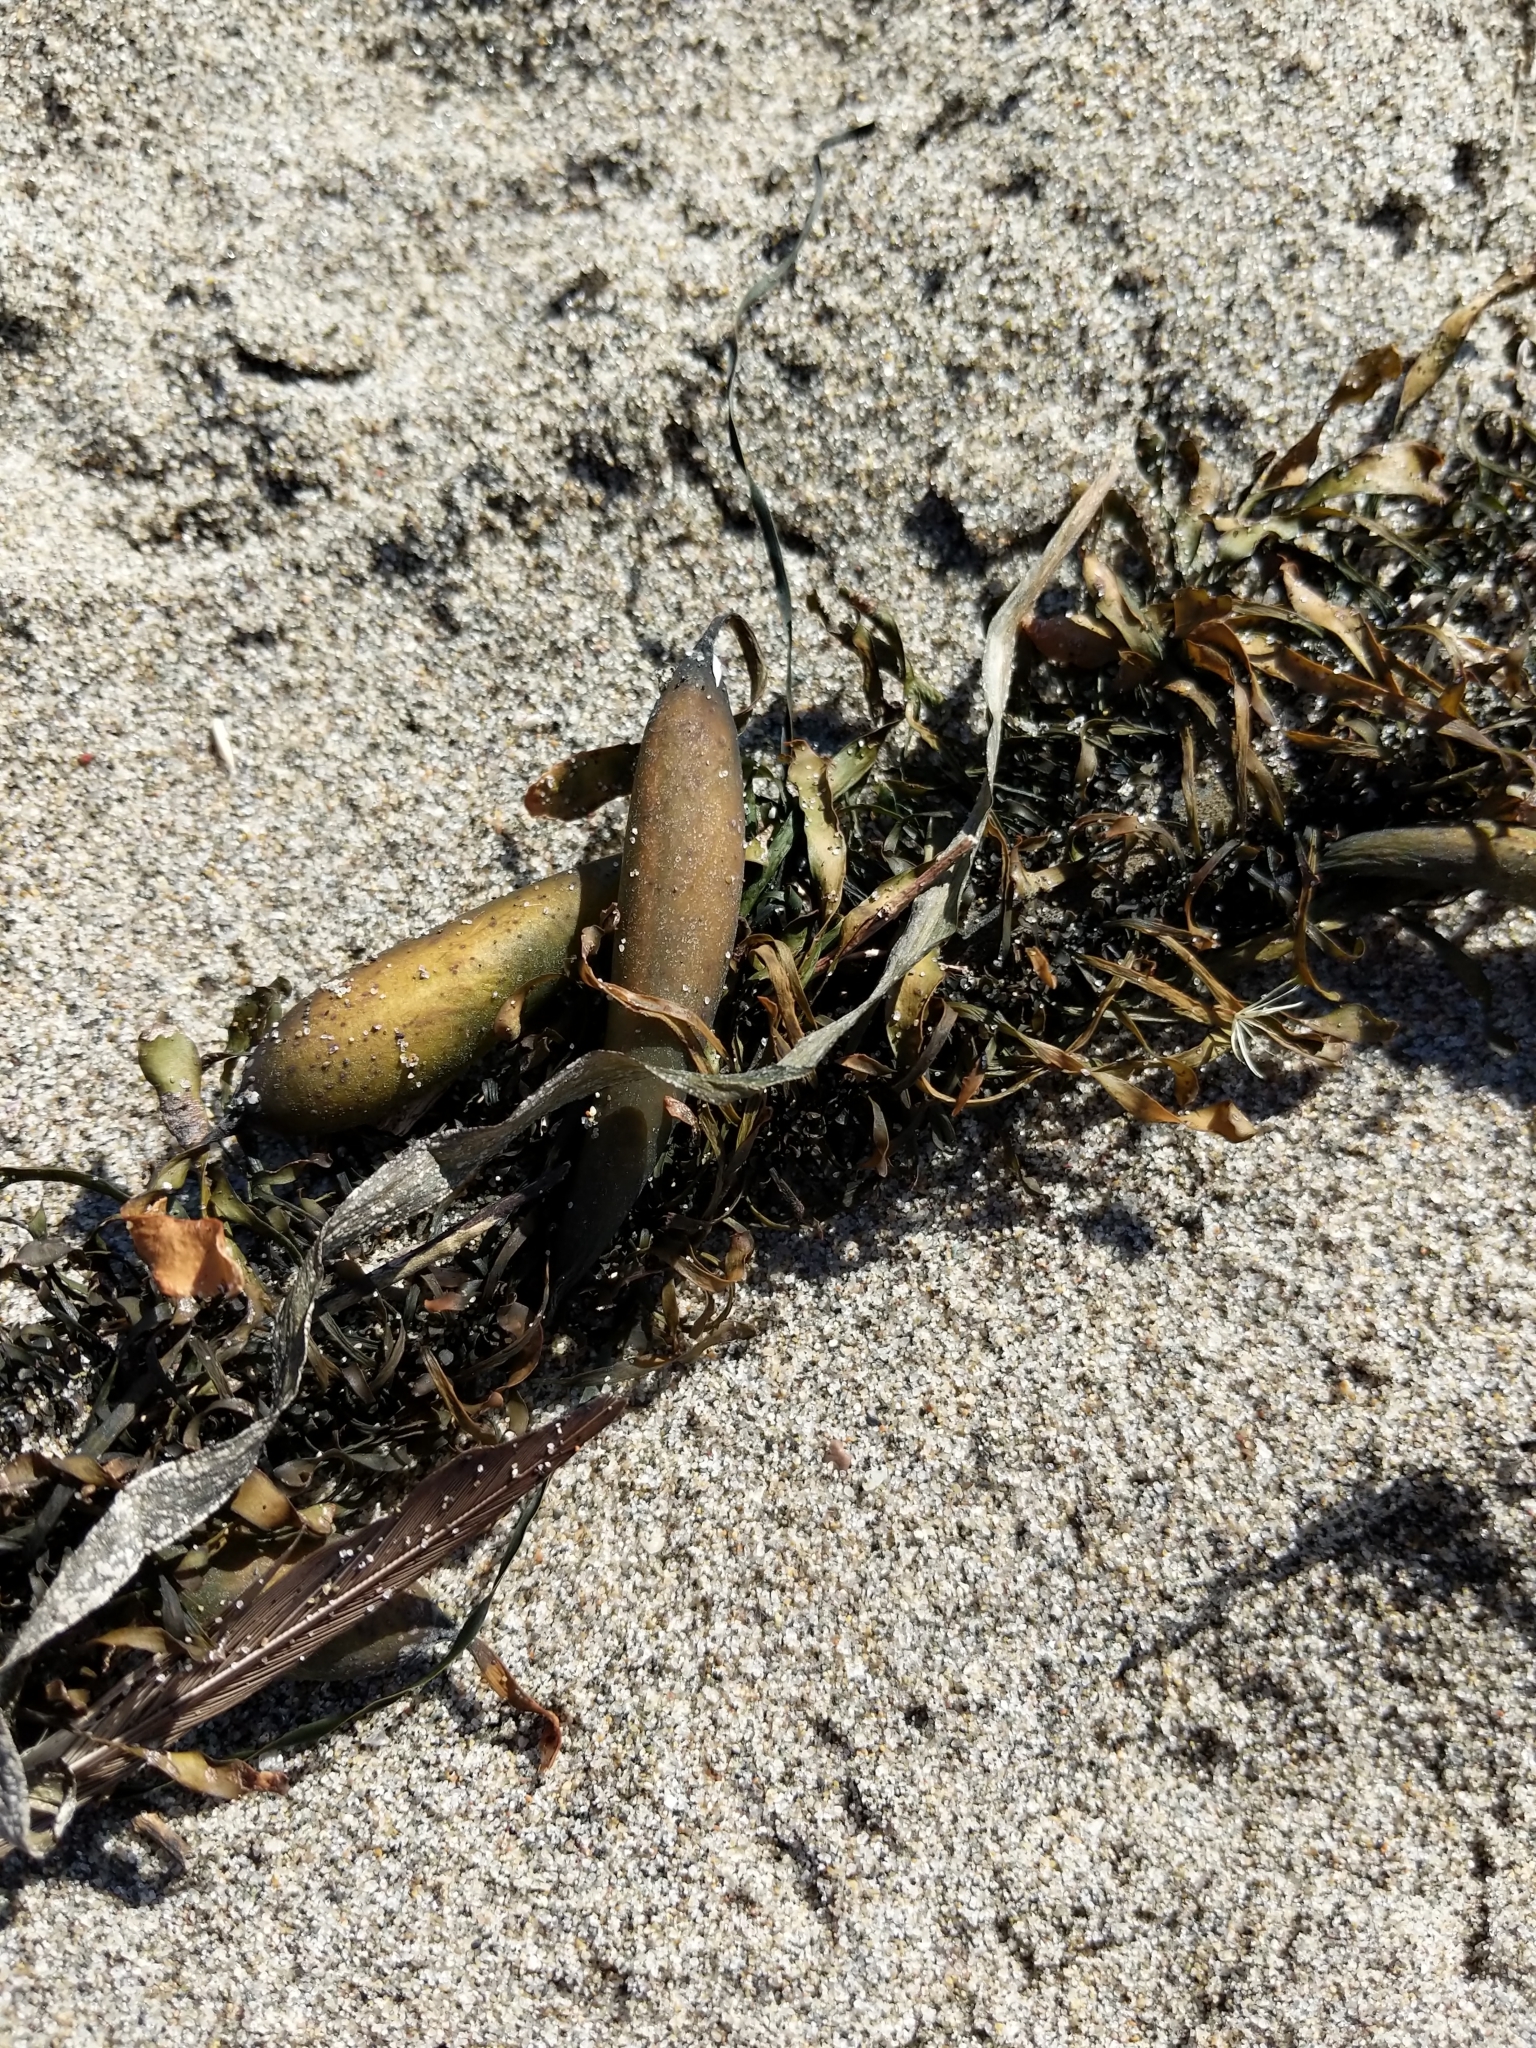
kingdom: Chromista
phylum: Ochrophyta
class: Phaeophyceae
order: Laminariales
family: Lessoniaceae
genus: Egregia
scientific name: Egregia menziesii
